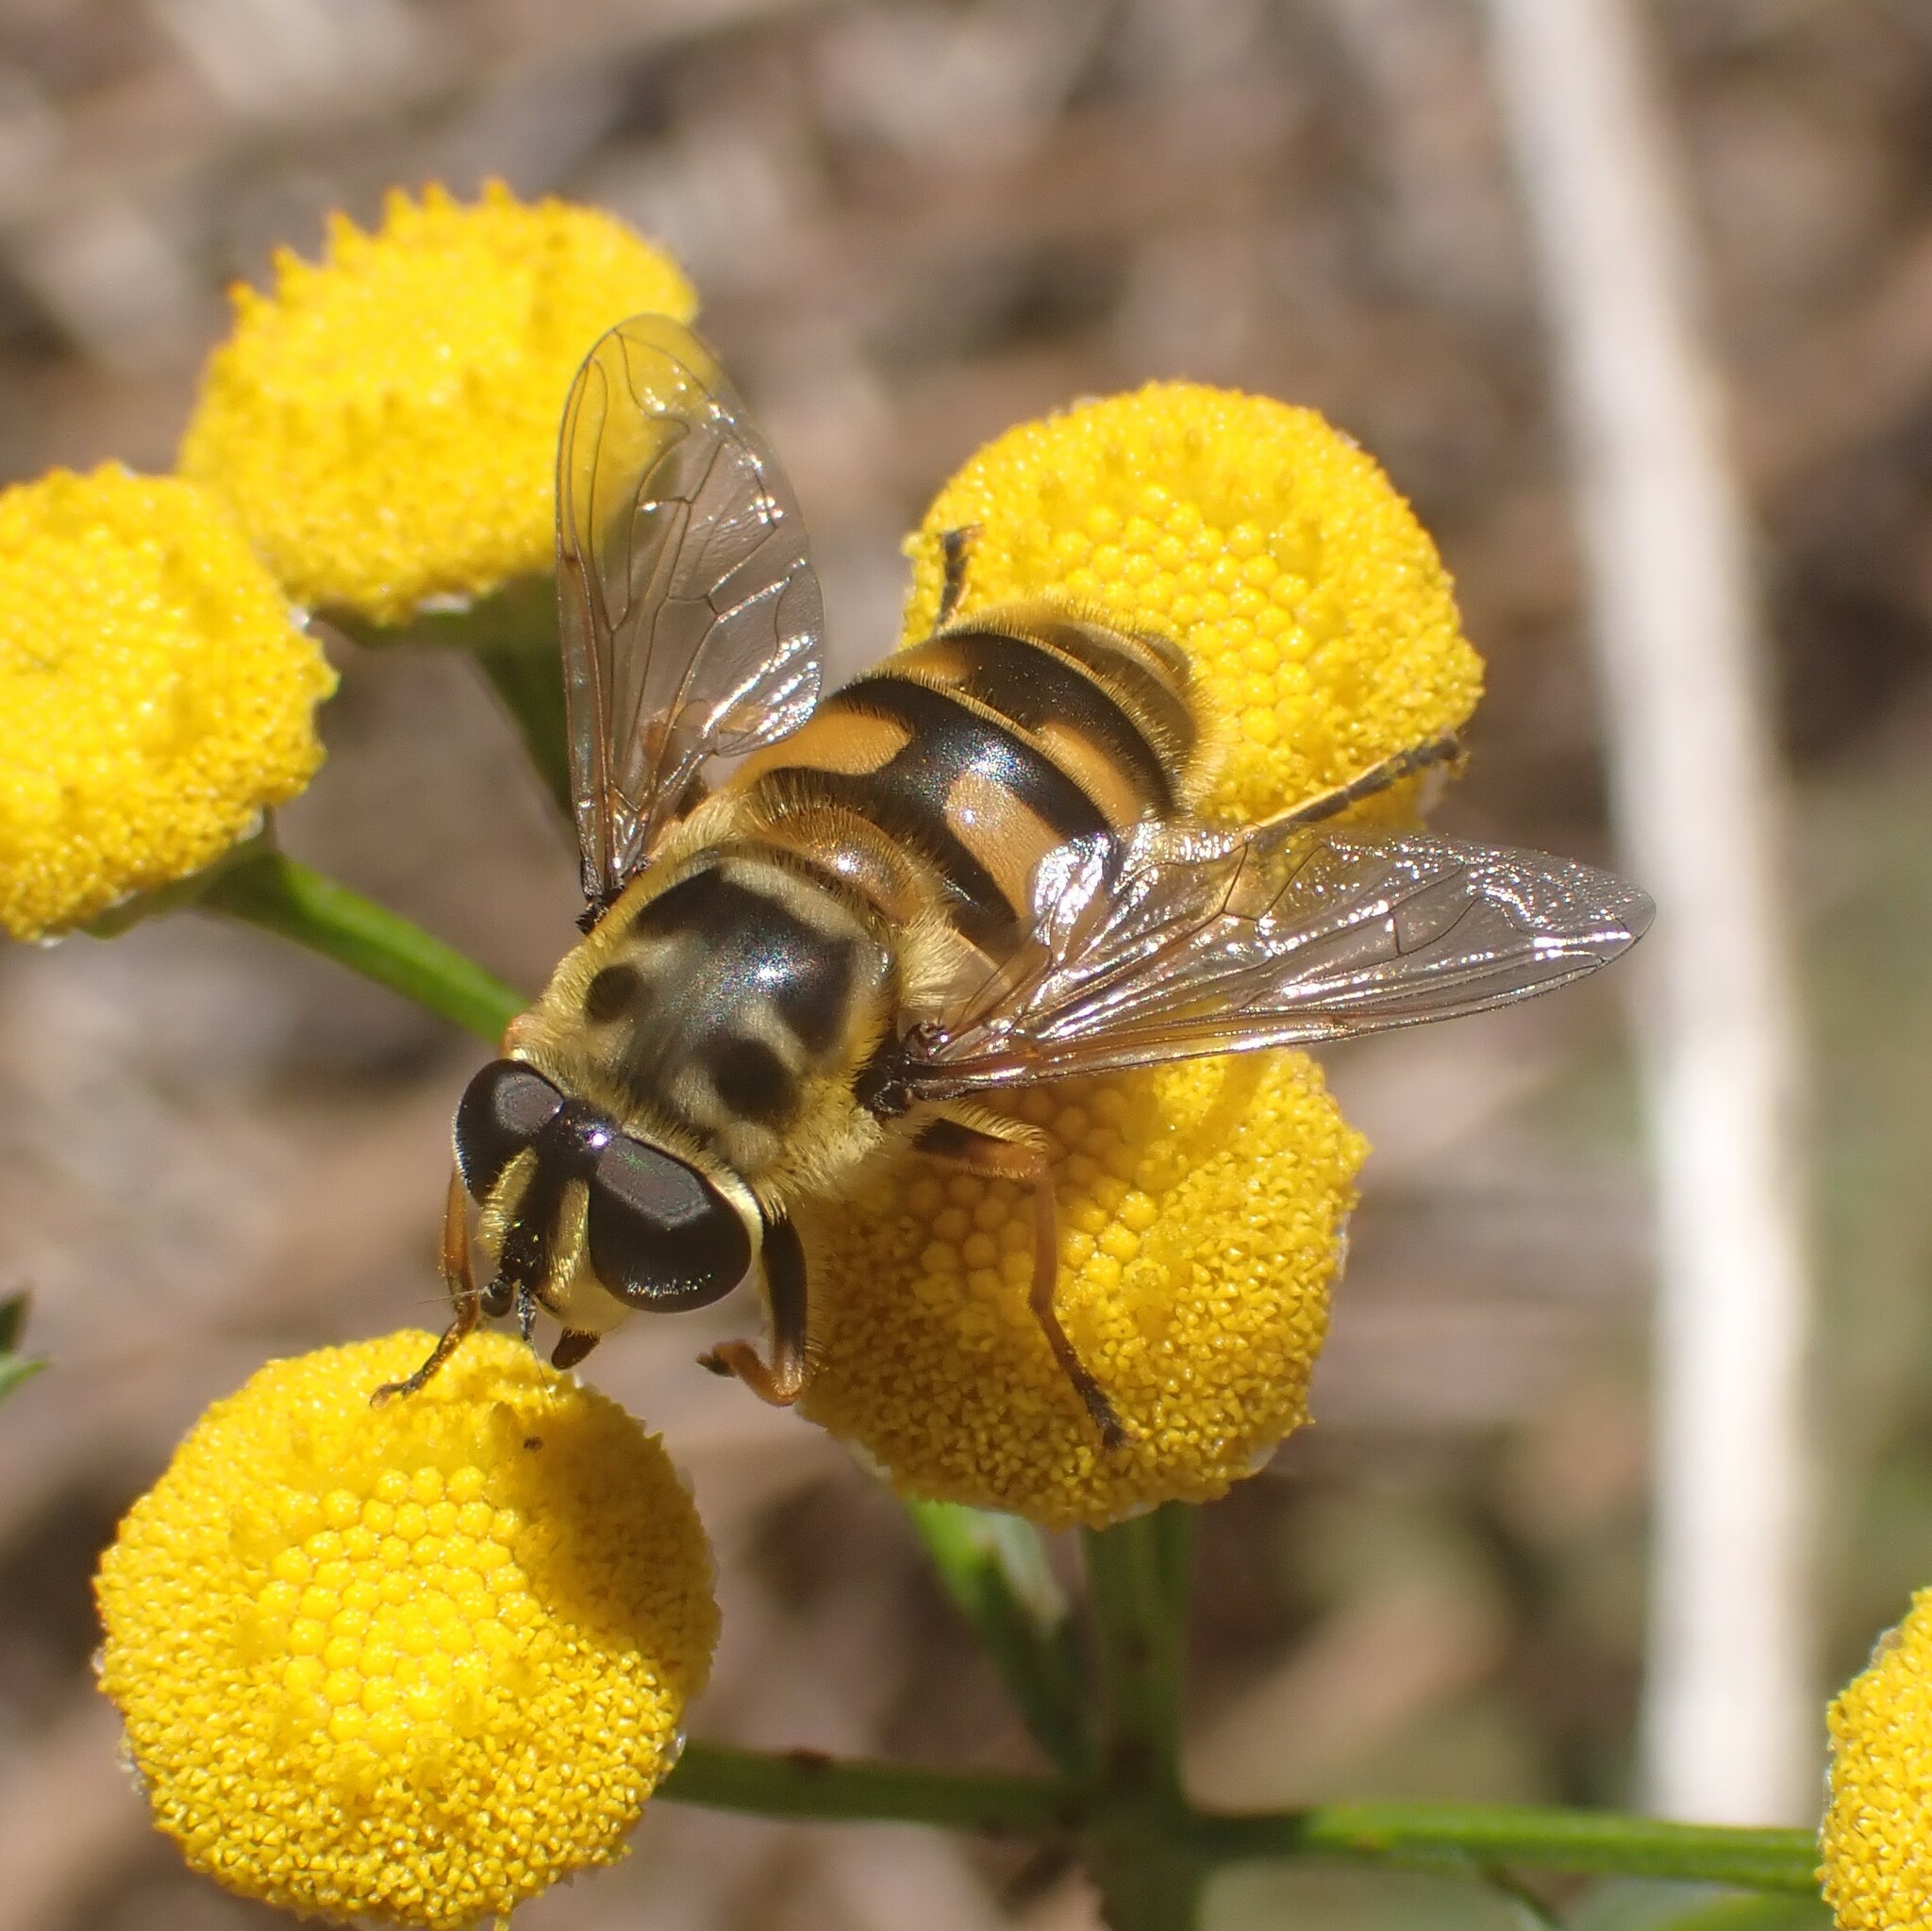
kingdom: Animalia
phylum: Arthropoda
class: Insecta
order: Diptera
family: Syrphidae
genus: Myathropa
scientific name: Myathropa florea
